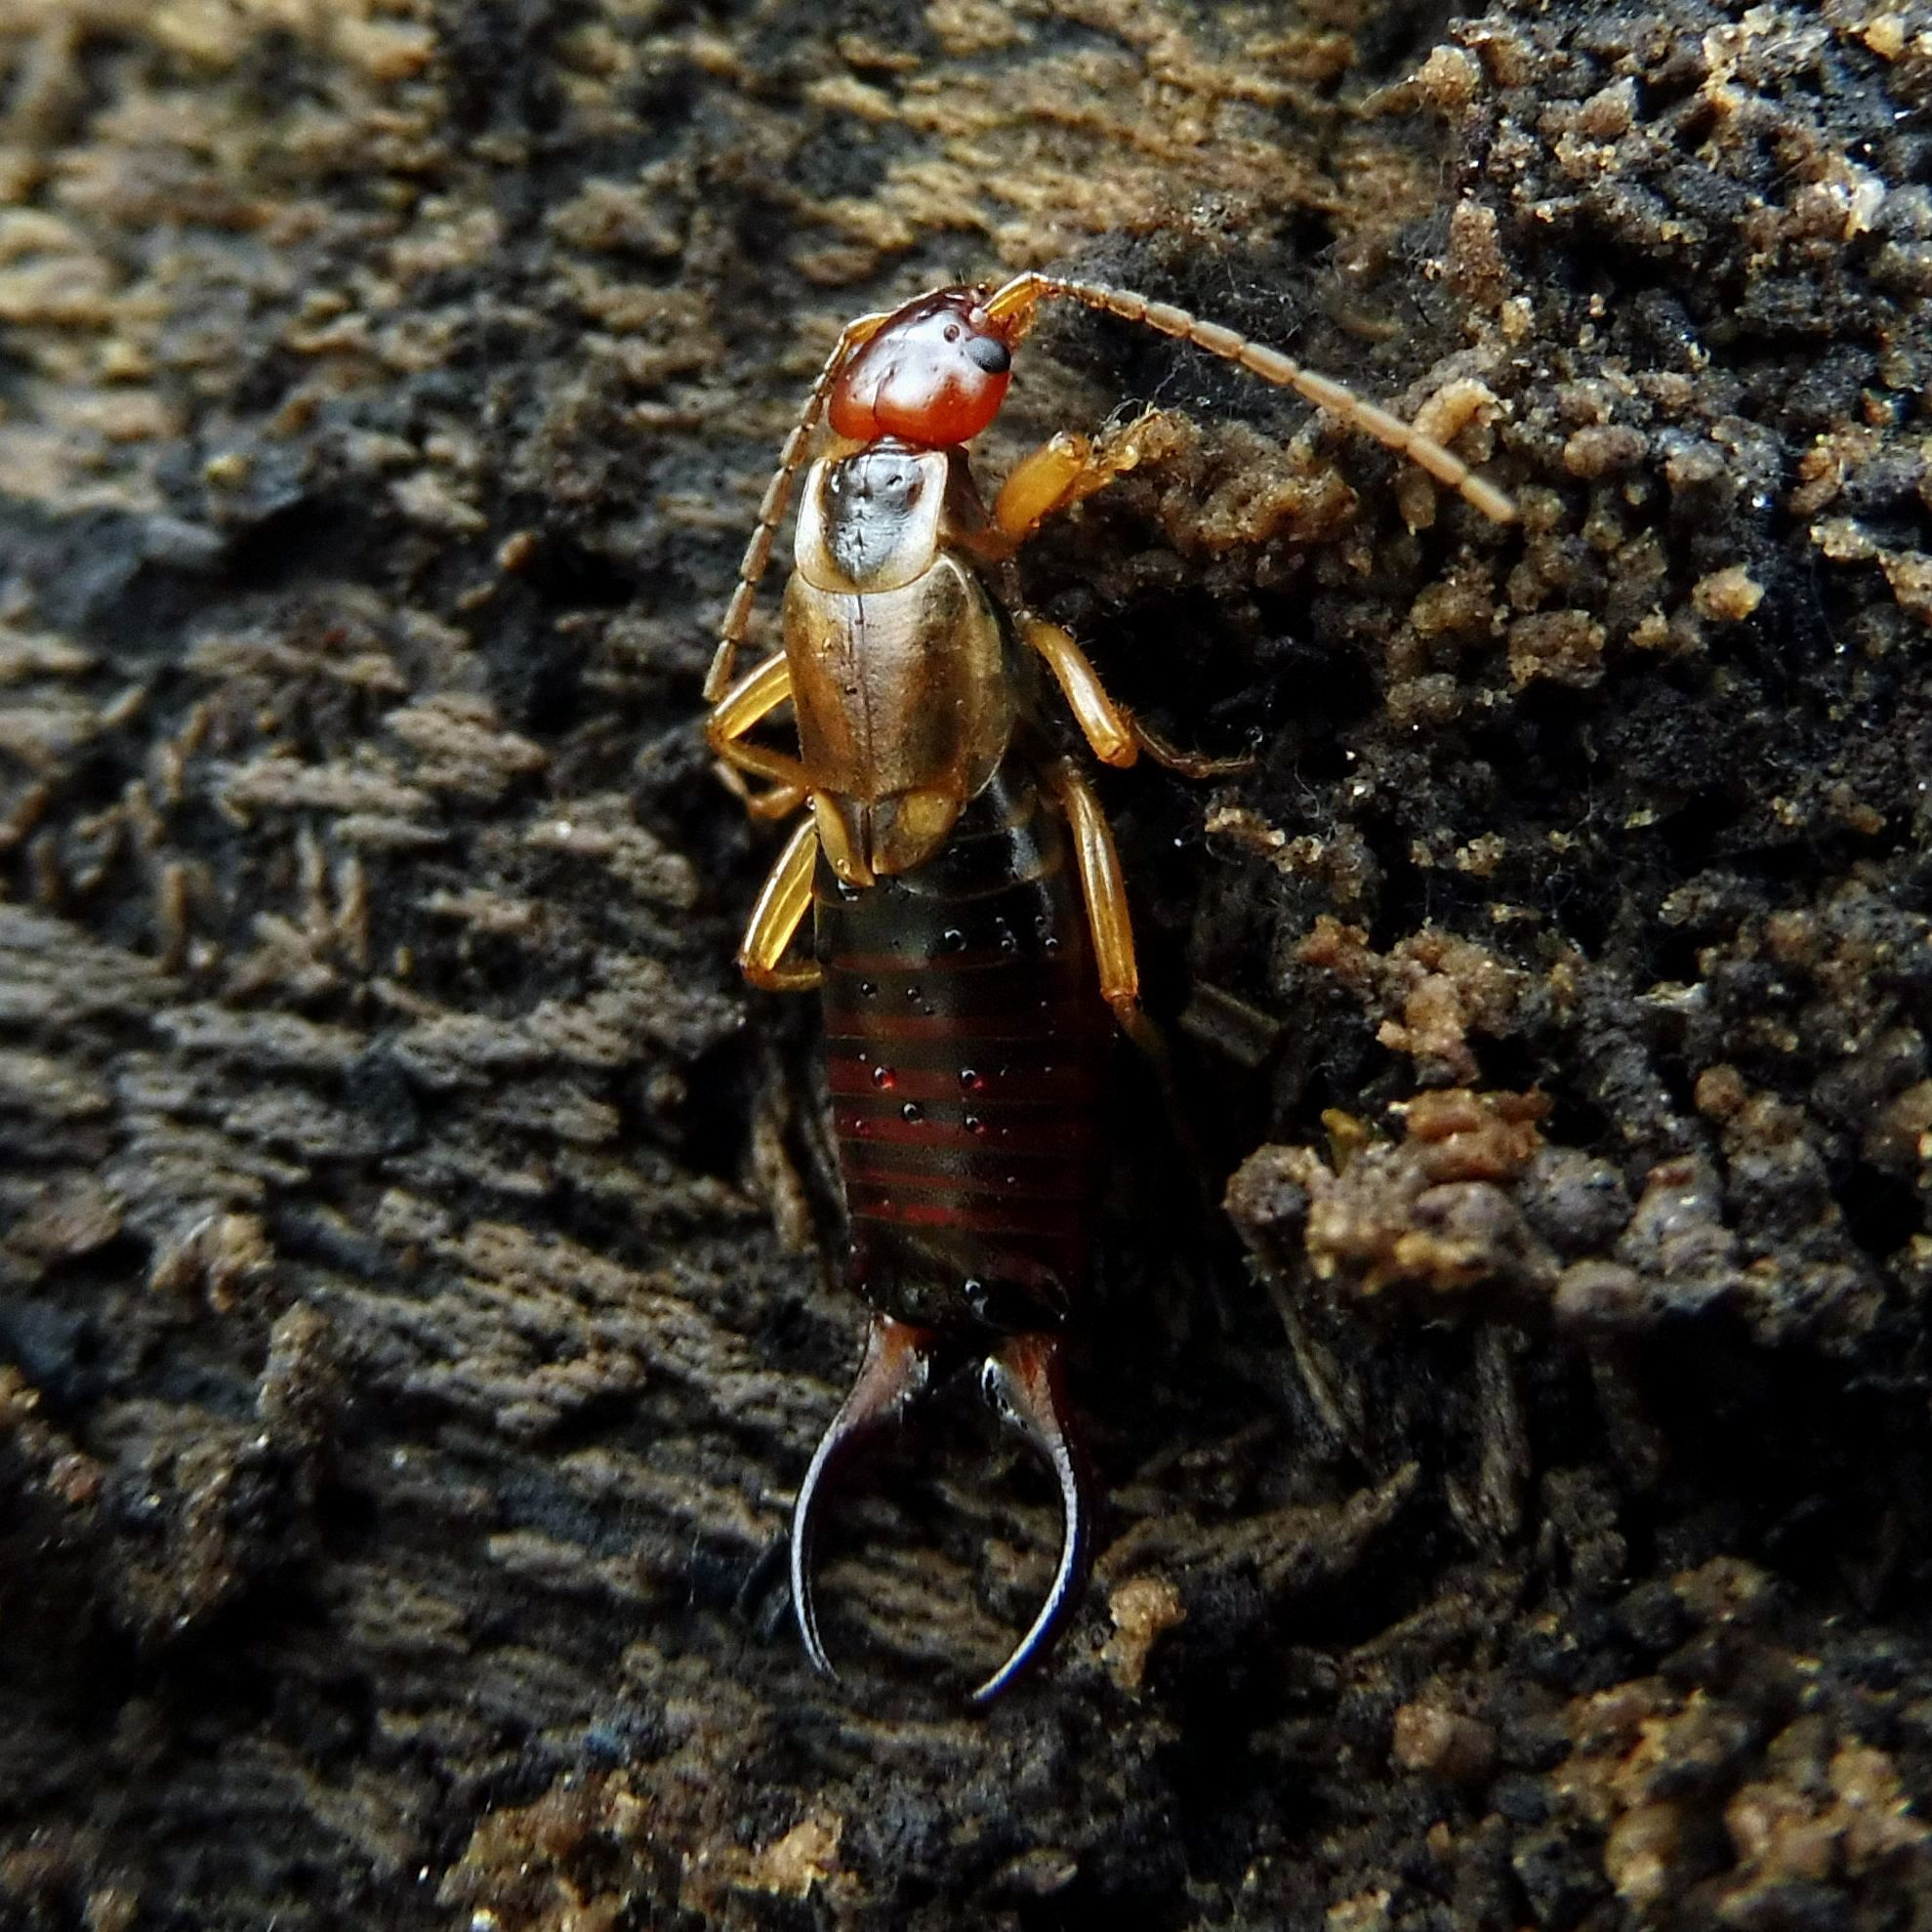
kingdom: Animalia
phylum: Arthropoda
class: Insecta
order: Dermaptera
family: Forficulidae
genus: Forficula
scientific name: Forficula
